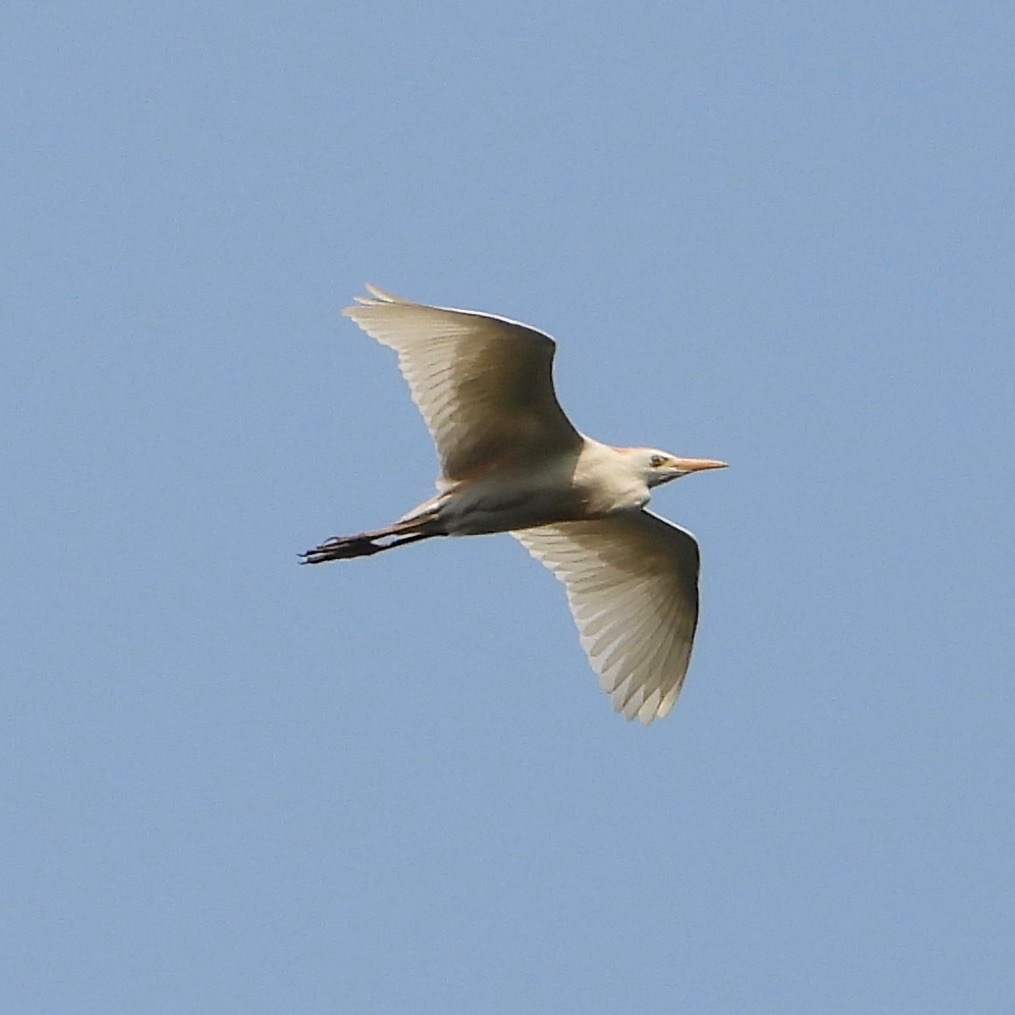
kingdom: Animalia
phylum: Chordata
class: Aves
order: Pelecaniformes
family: Ardeidae
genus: Bubulcus
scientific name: Bubulcus ibis
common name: Cattle egret
